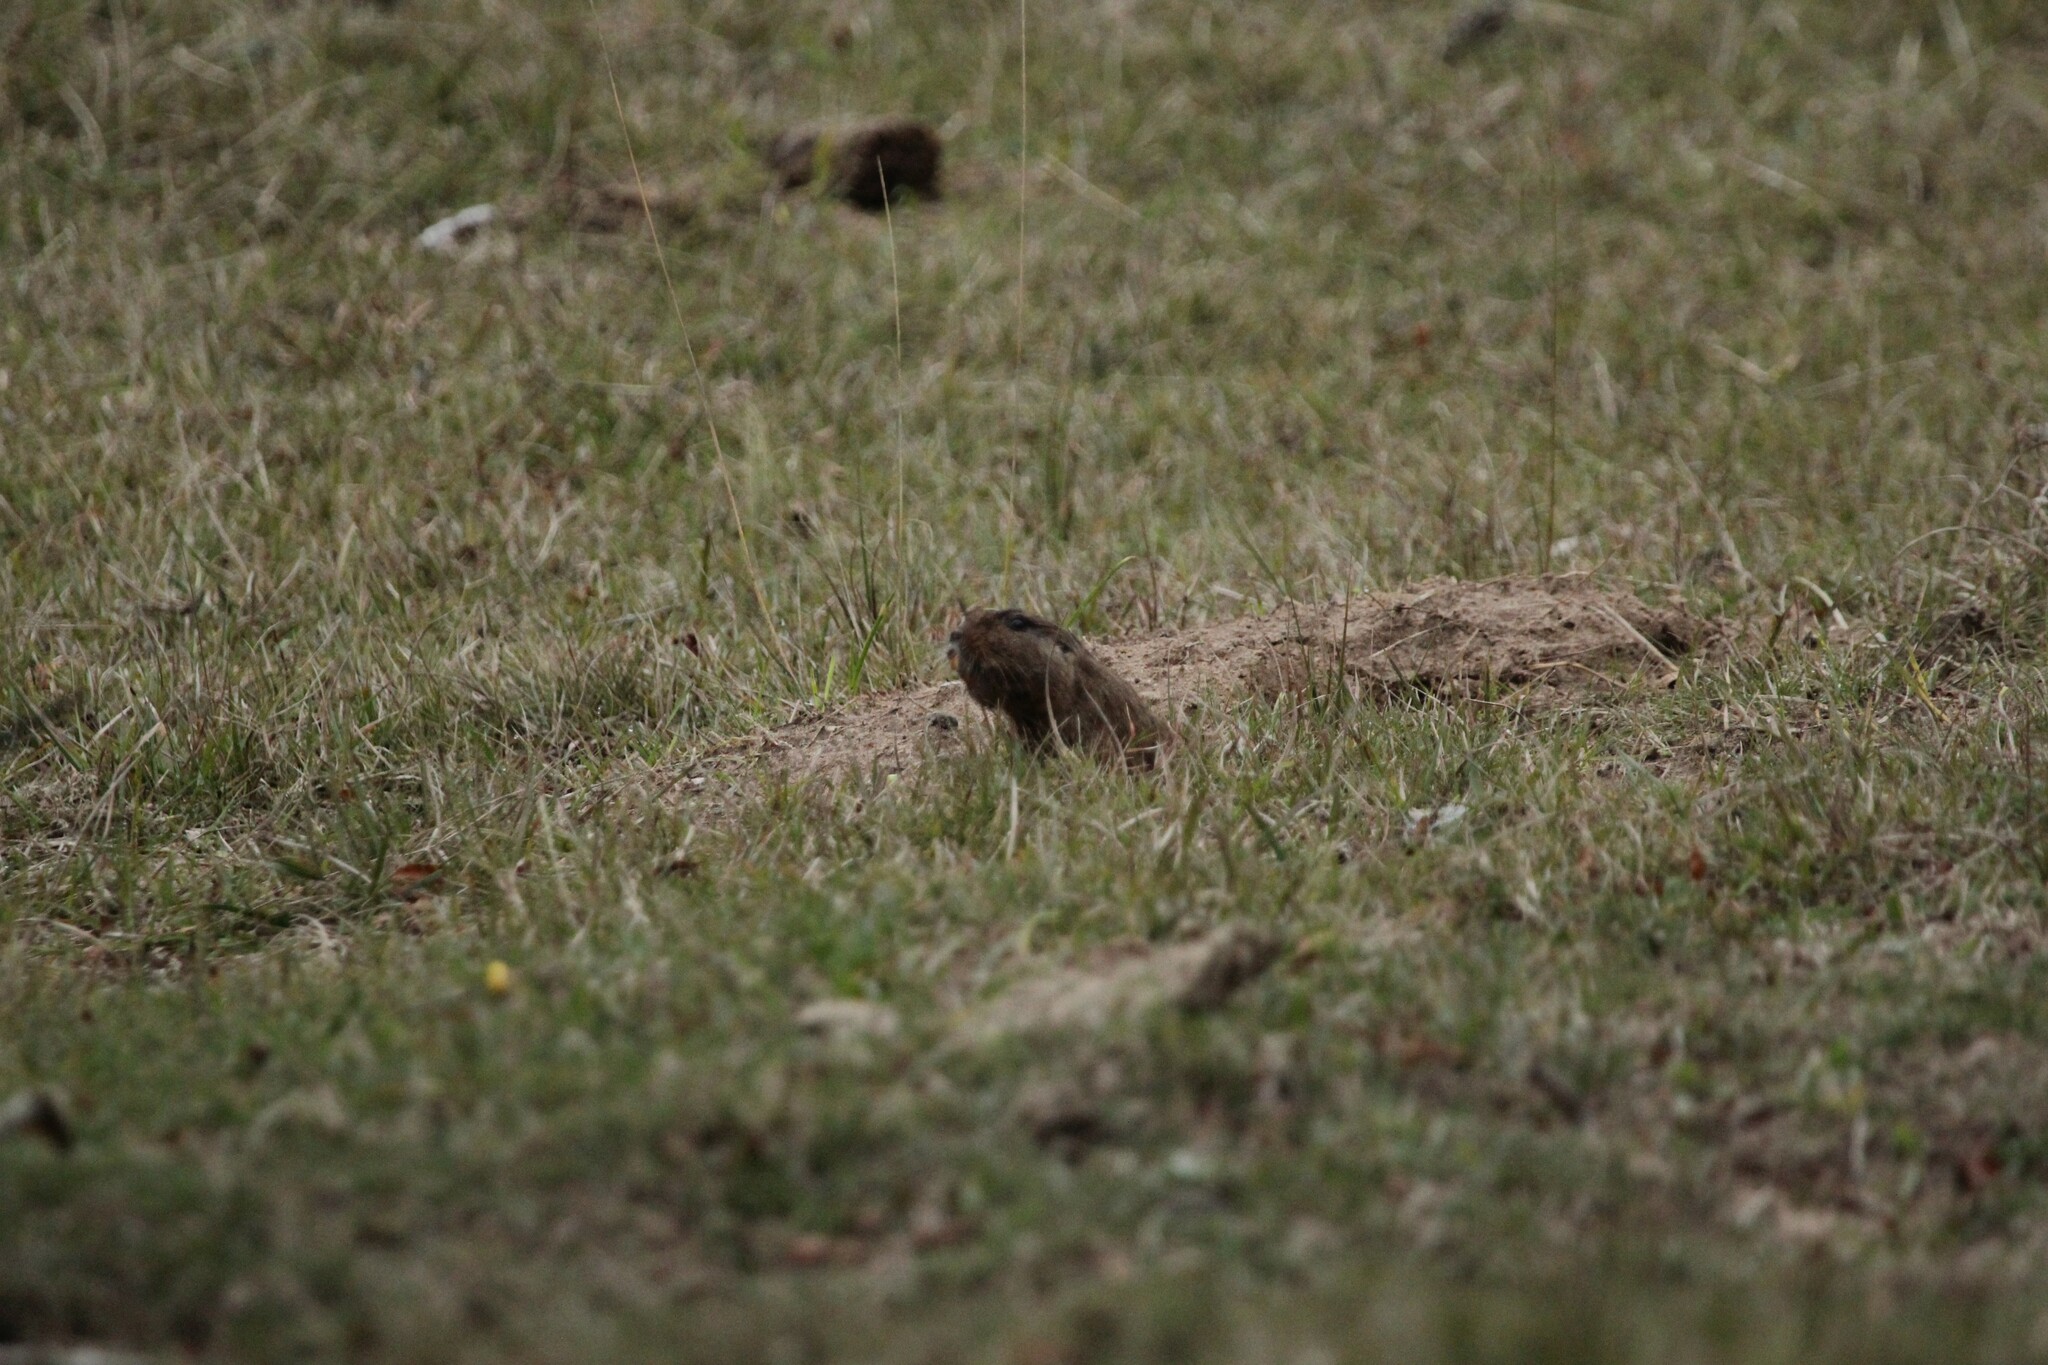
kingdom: Animalia
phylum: Chordata
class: Mammalia
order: Rodentia
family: Ctenomyidae
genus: Ctenomys
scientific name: Ctenomys pearsoni
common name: Pearson's tuco-tuco
